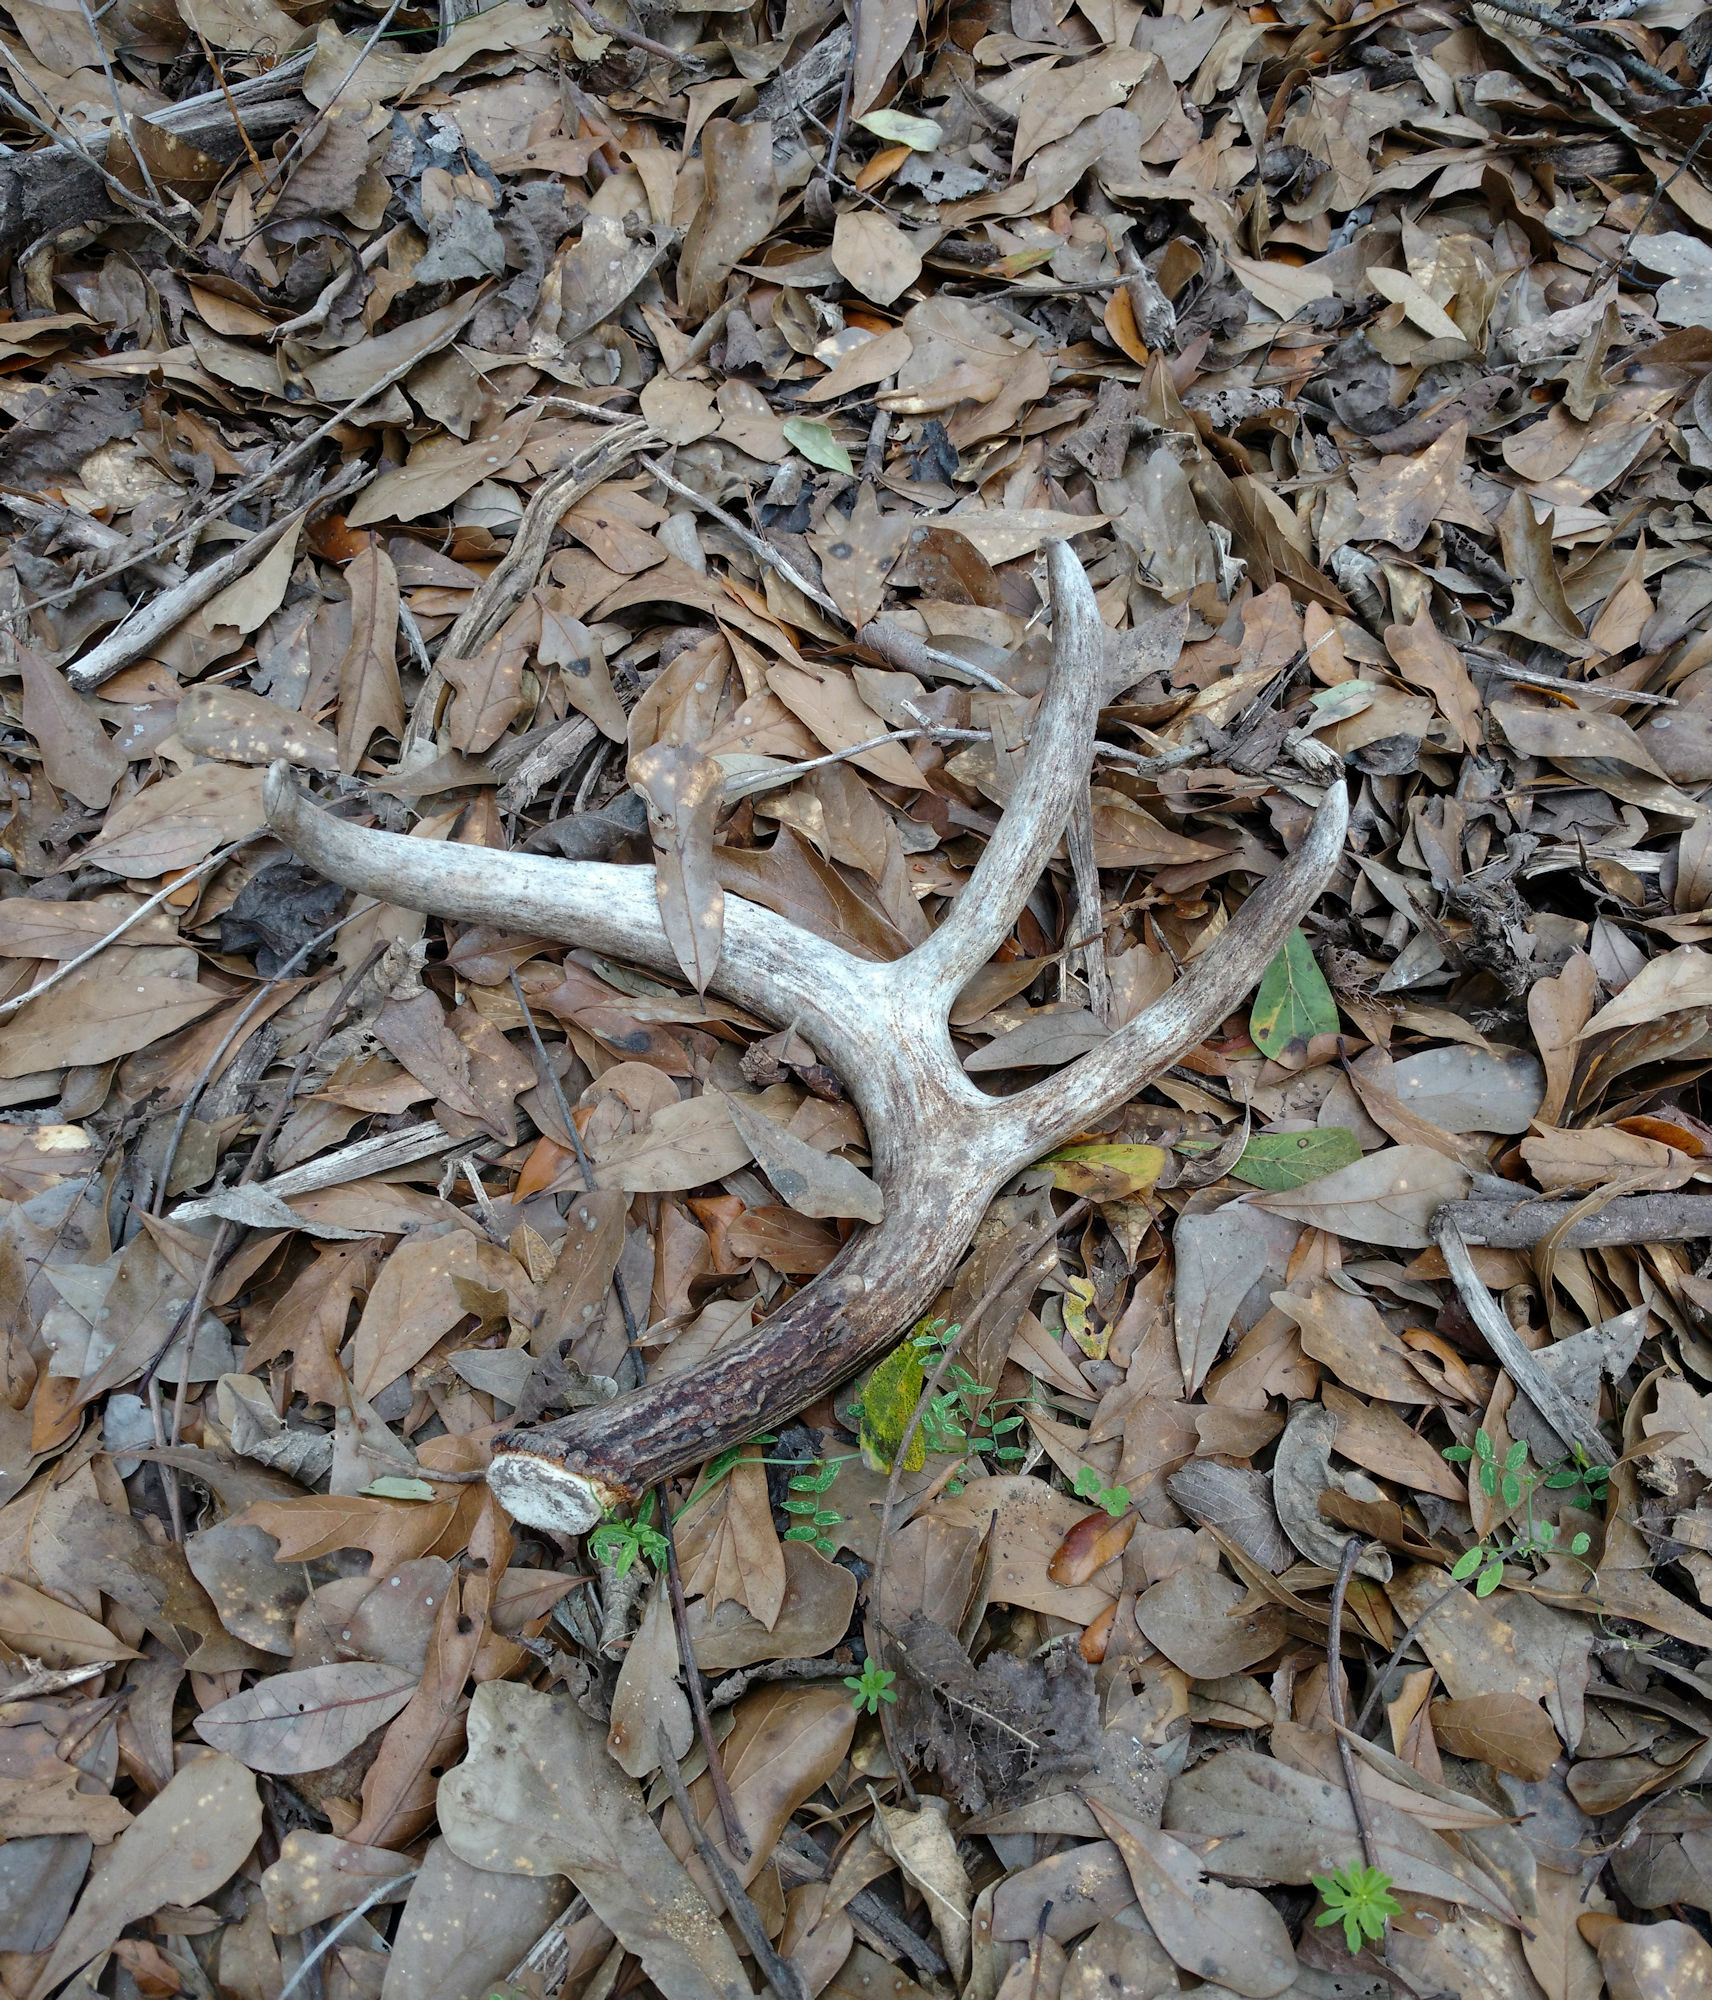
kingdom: Animalia
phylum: Chordata
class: Mammalia
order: Artiodactyla
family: Cervidae
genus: Odocoileus
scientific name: Odocoileus virginianus
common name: White-tailed deer
